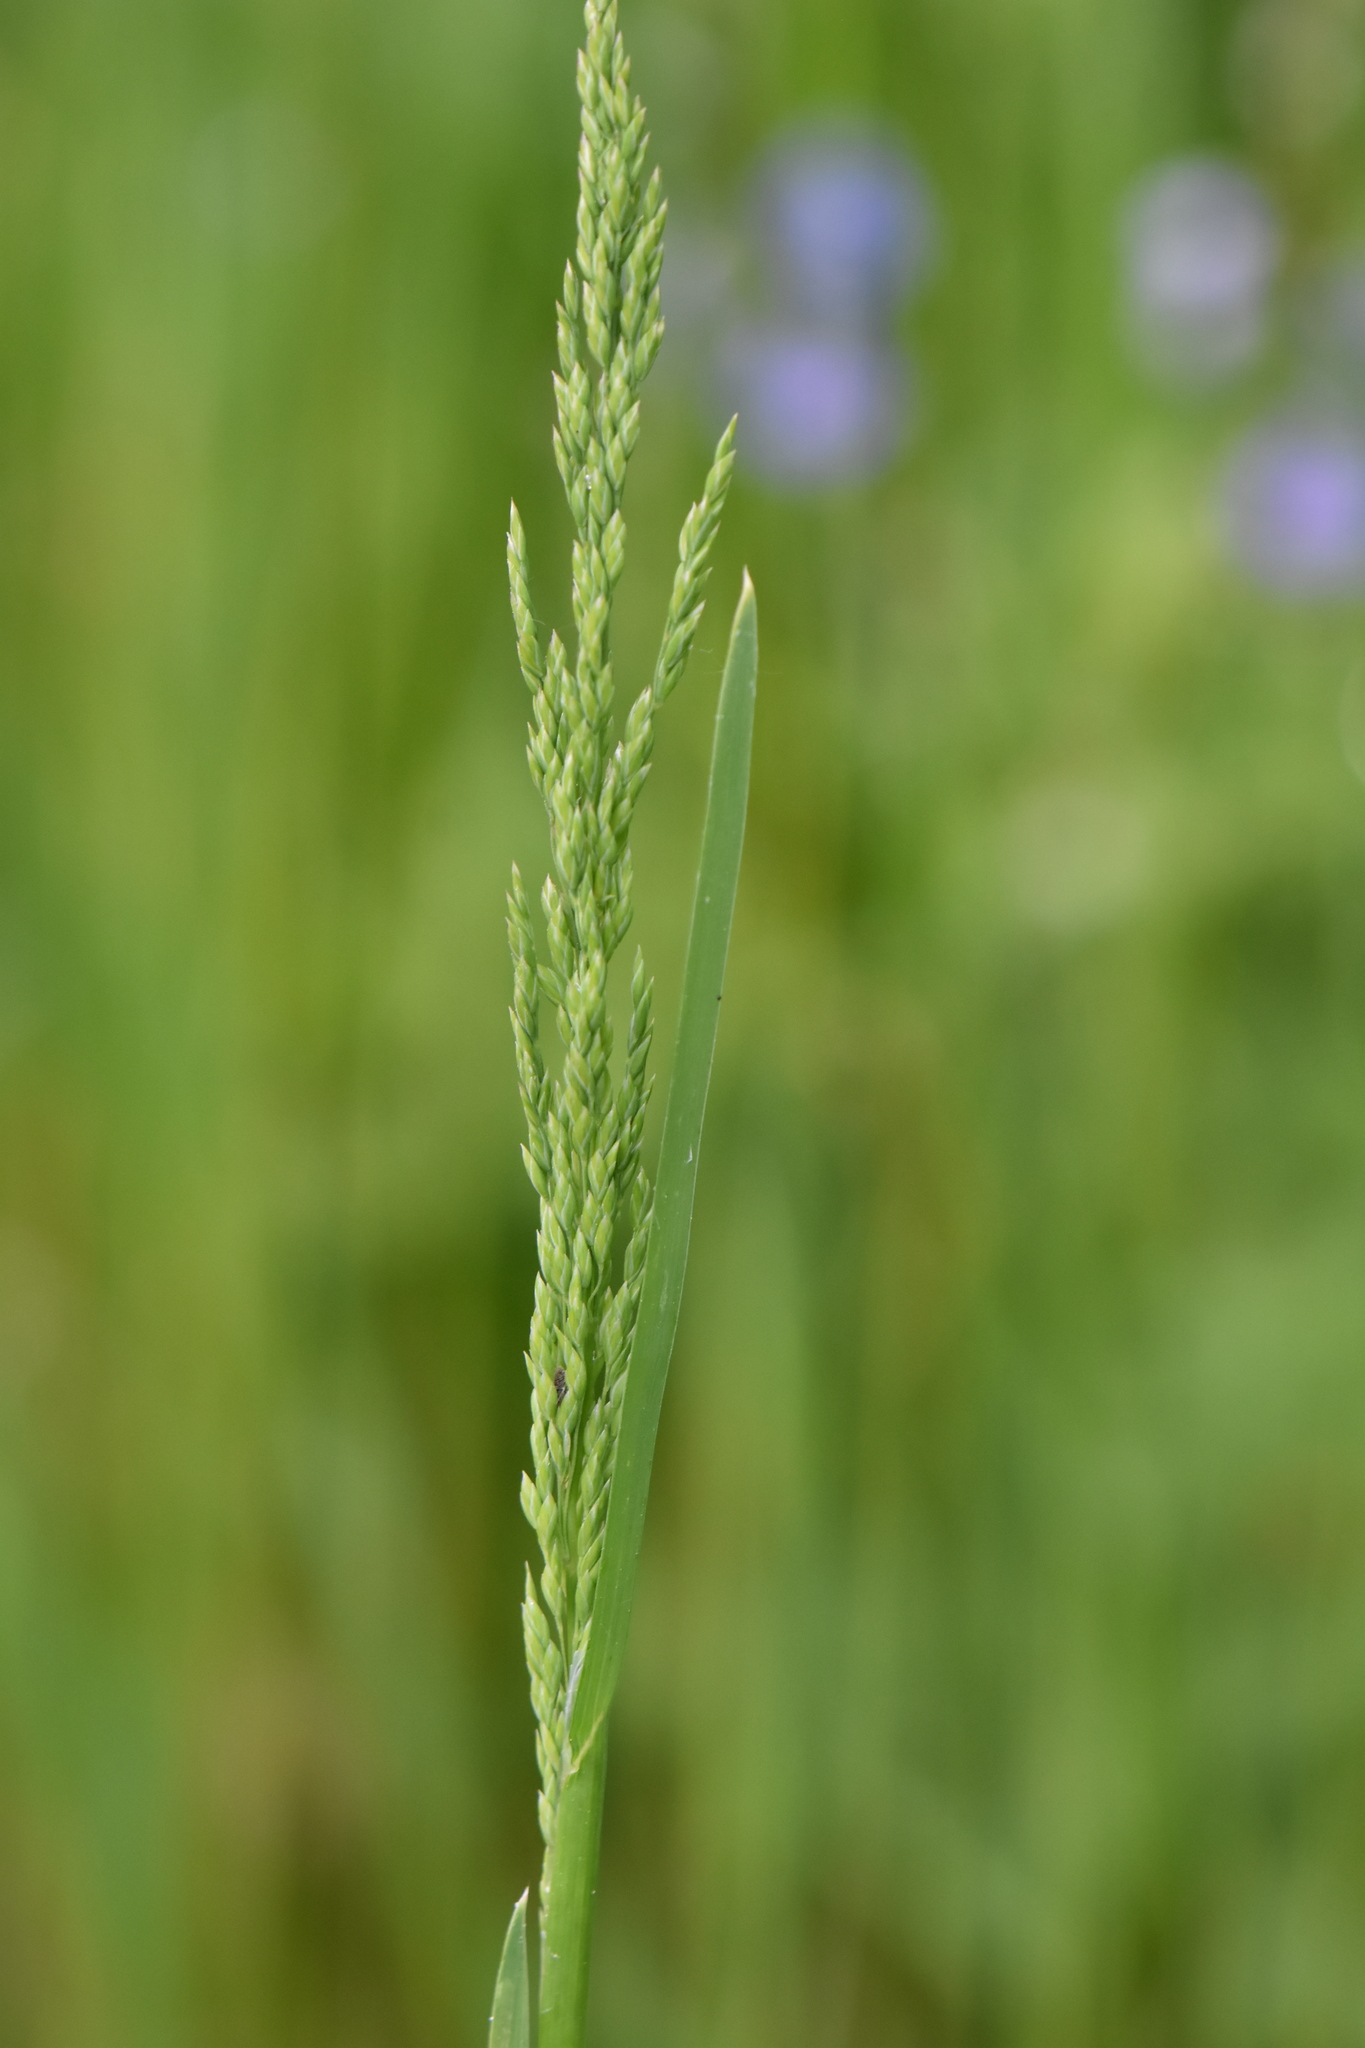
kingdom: Plantae
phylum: Tracheophyta
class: Liliopsida
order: Poales
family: Poaceae
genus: Poa
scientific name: Poa trivialis
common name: Rough bluegrass
